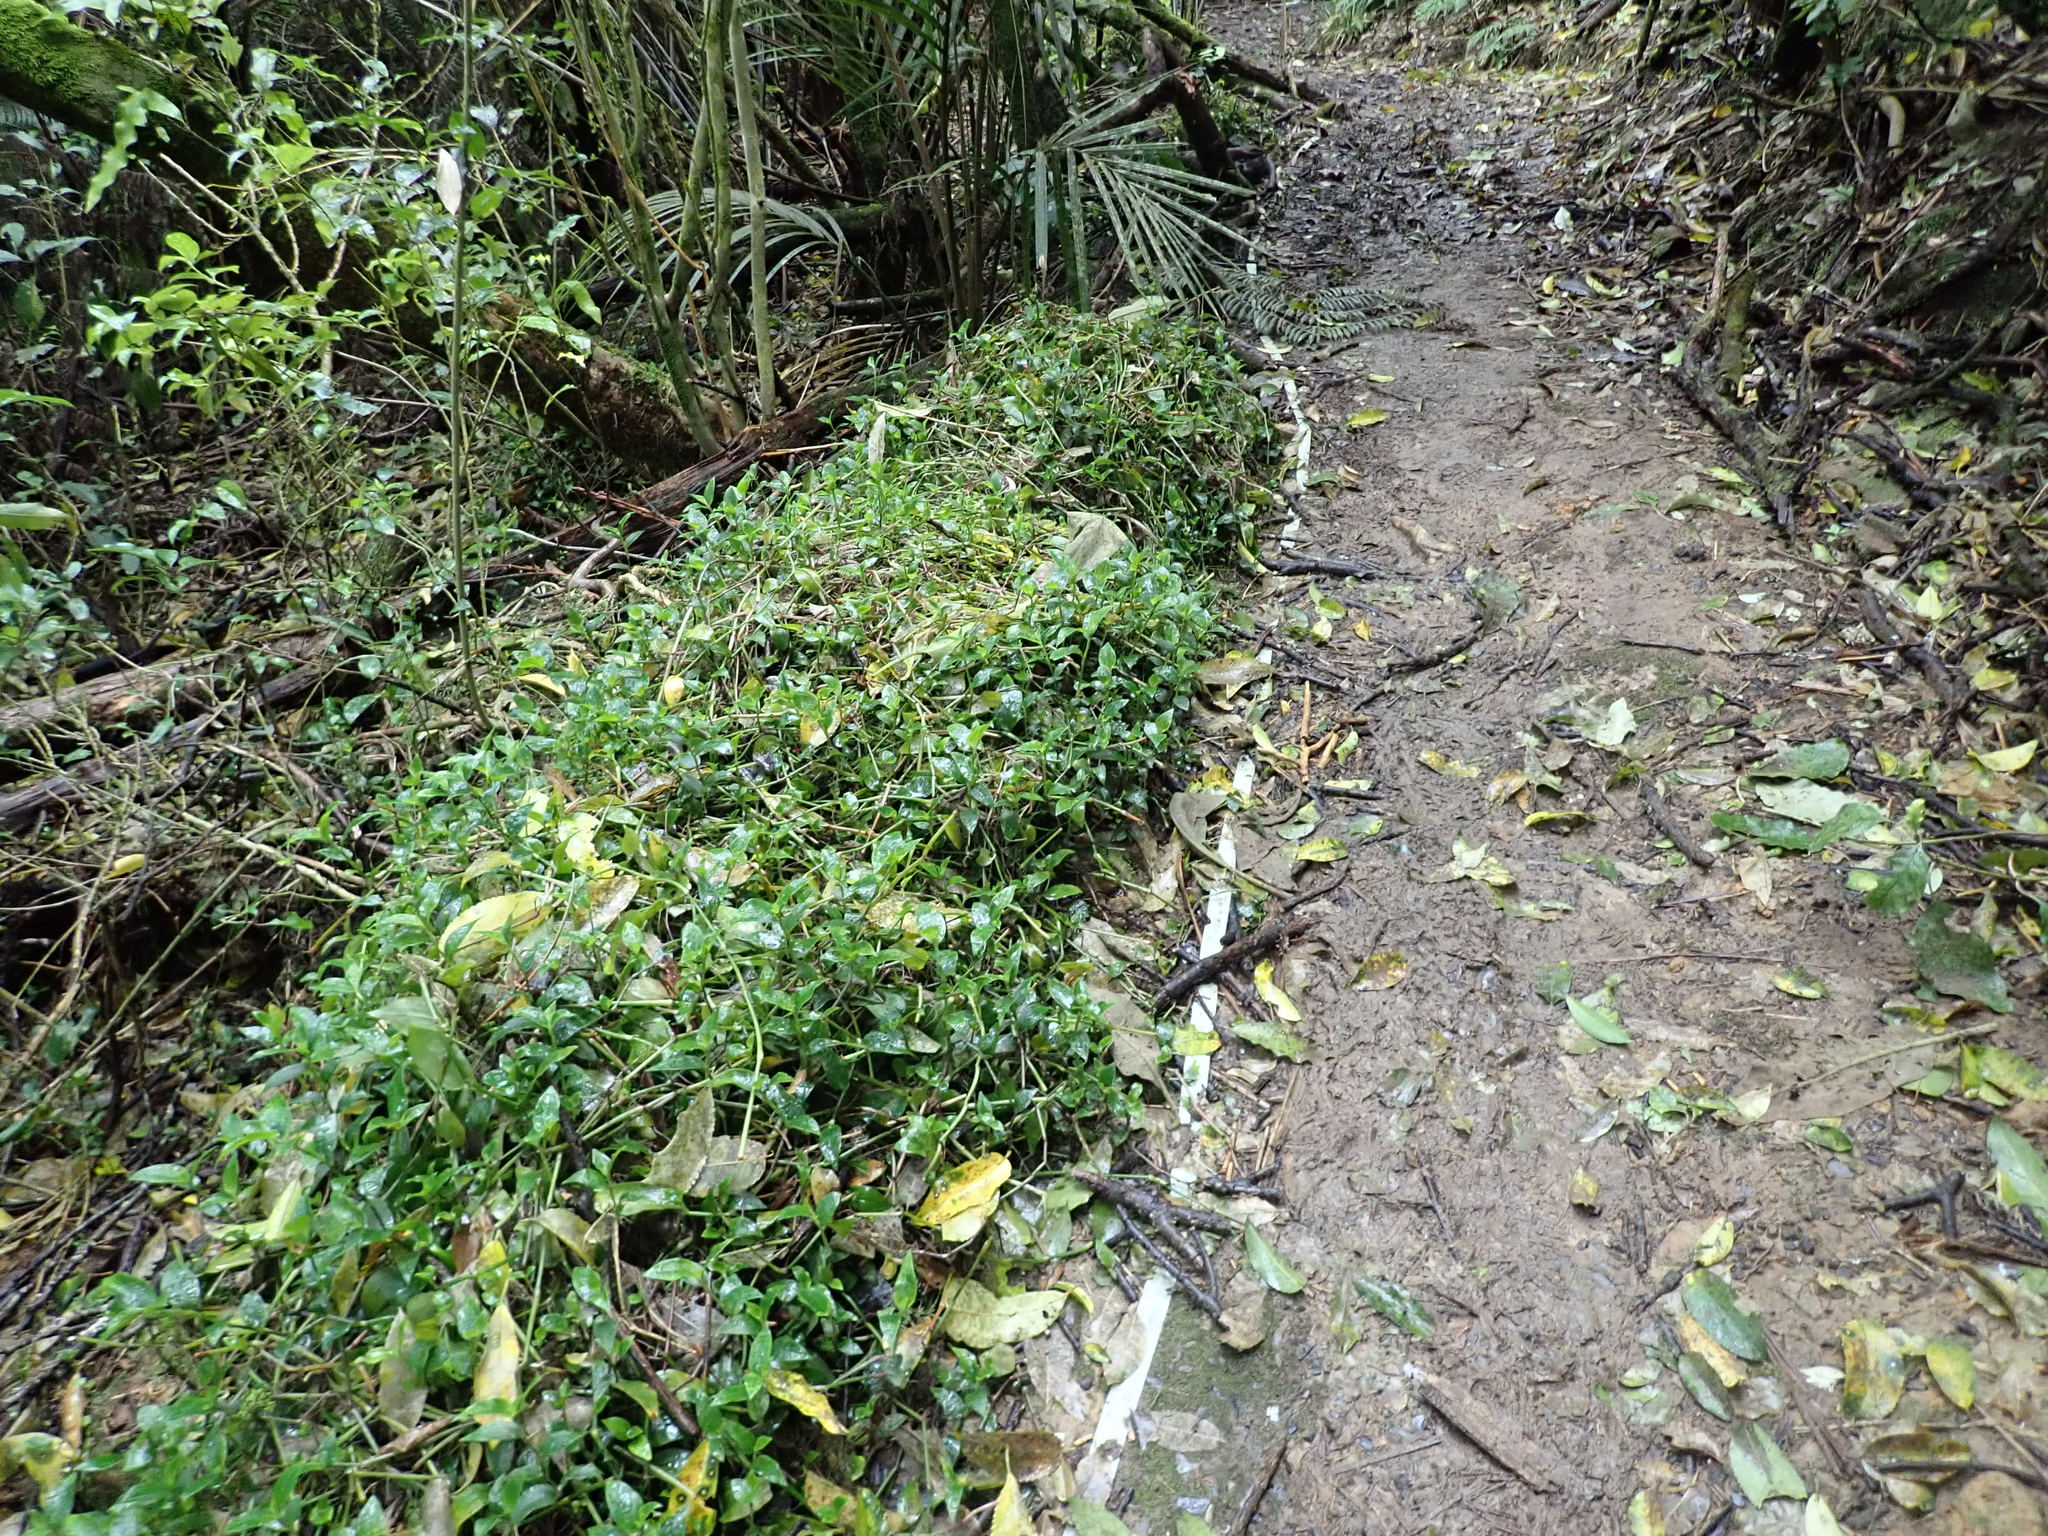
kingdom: Plantae
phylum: Tracheophyta
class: Liliopsida
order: Commelinales
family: Commelinaceae
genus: Tradescantia
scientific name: Tradescantia fluminensis
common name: Wandering-jew
